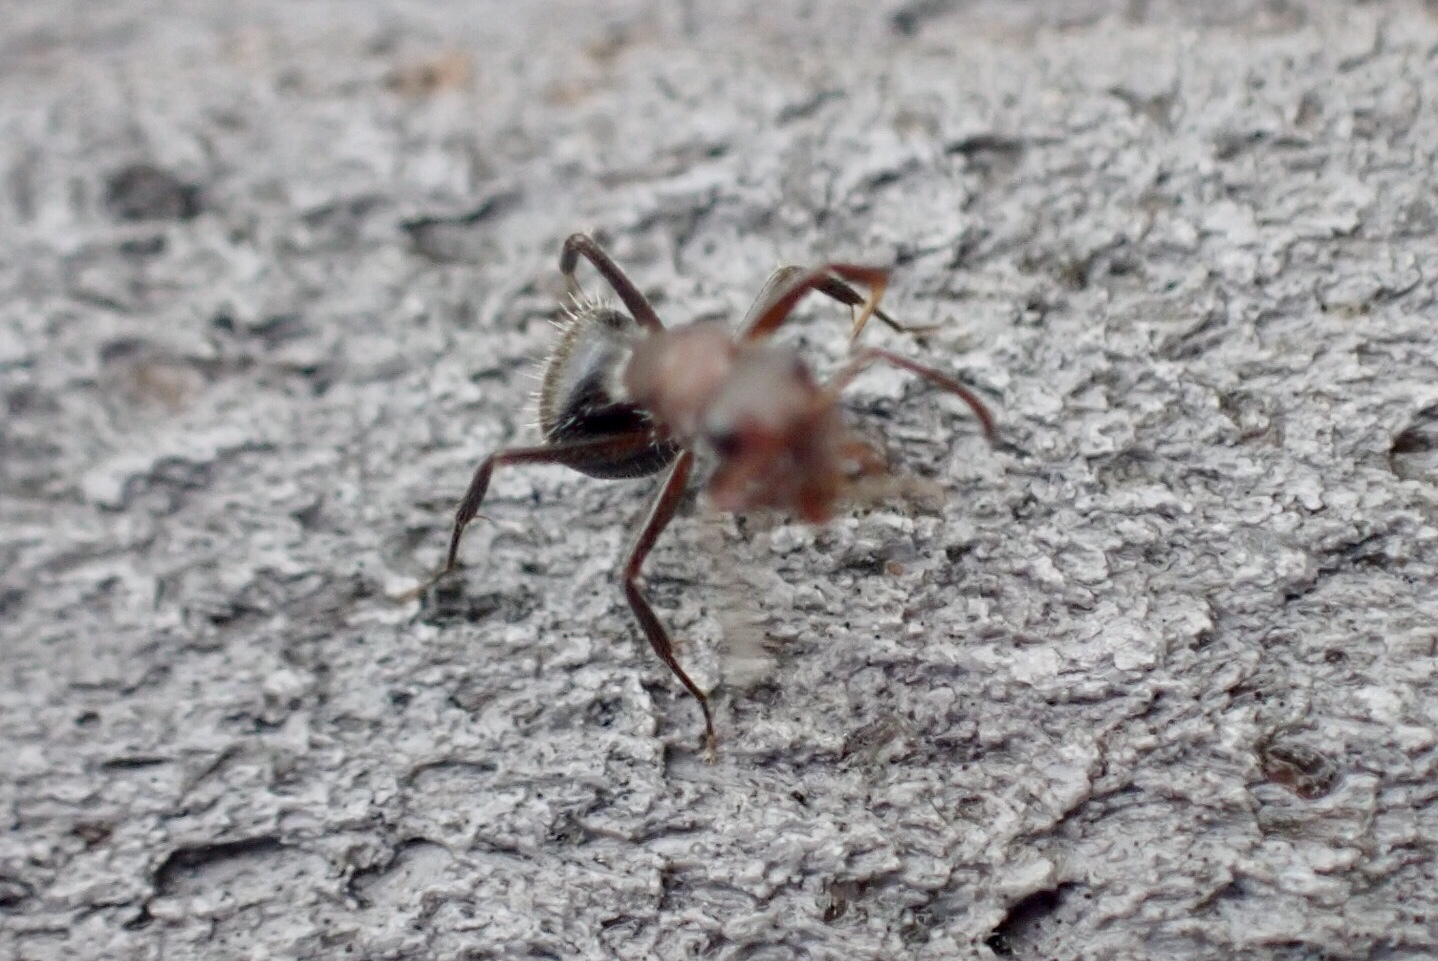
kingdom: Animalia
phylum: Arthropoda
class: Insecta
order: Hymenoptera
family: Formicidae
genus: Camponotus
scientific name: Camponotus planatus
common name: Compact carpenter ant
